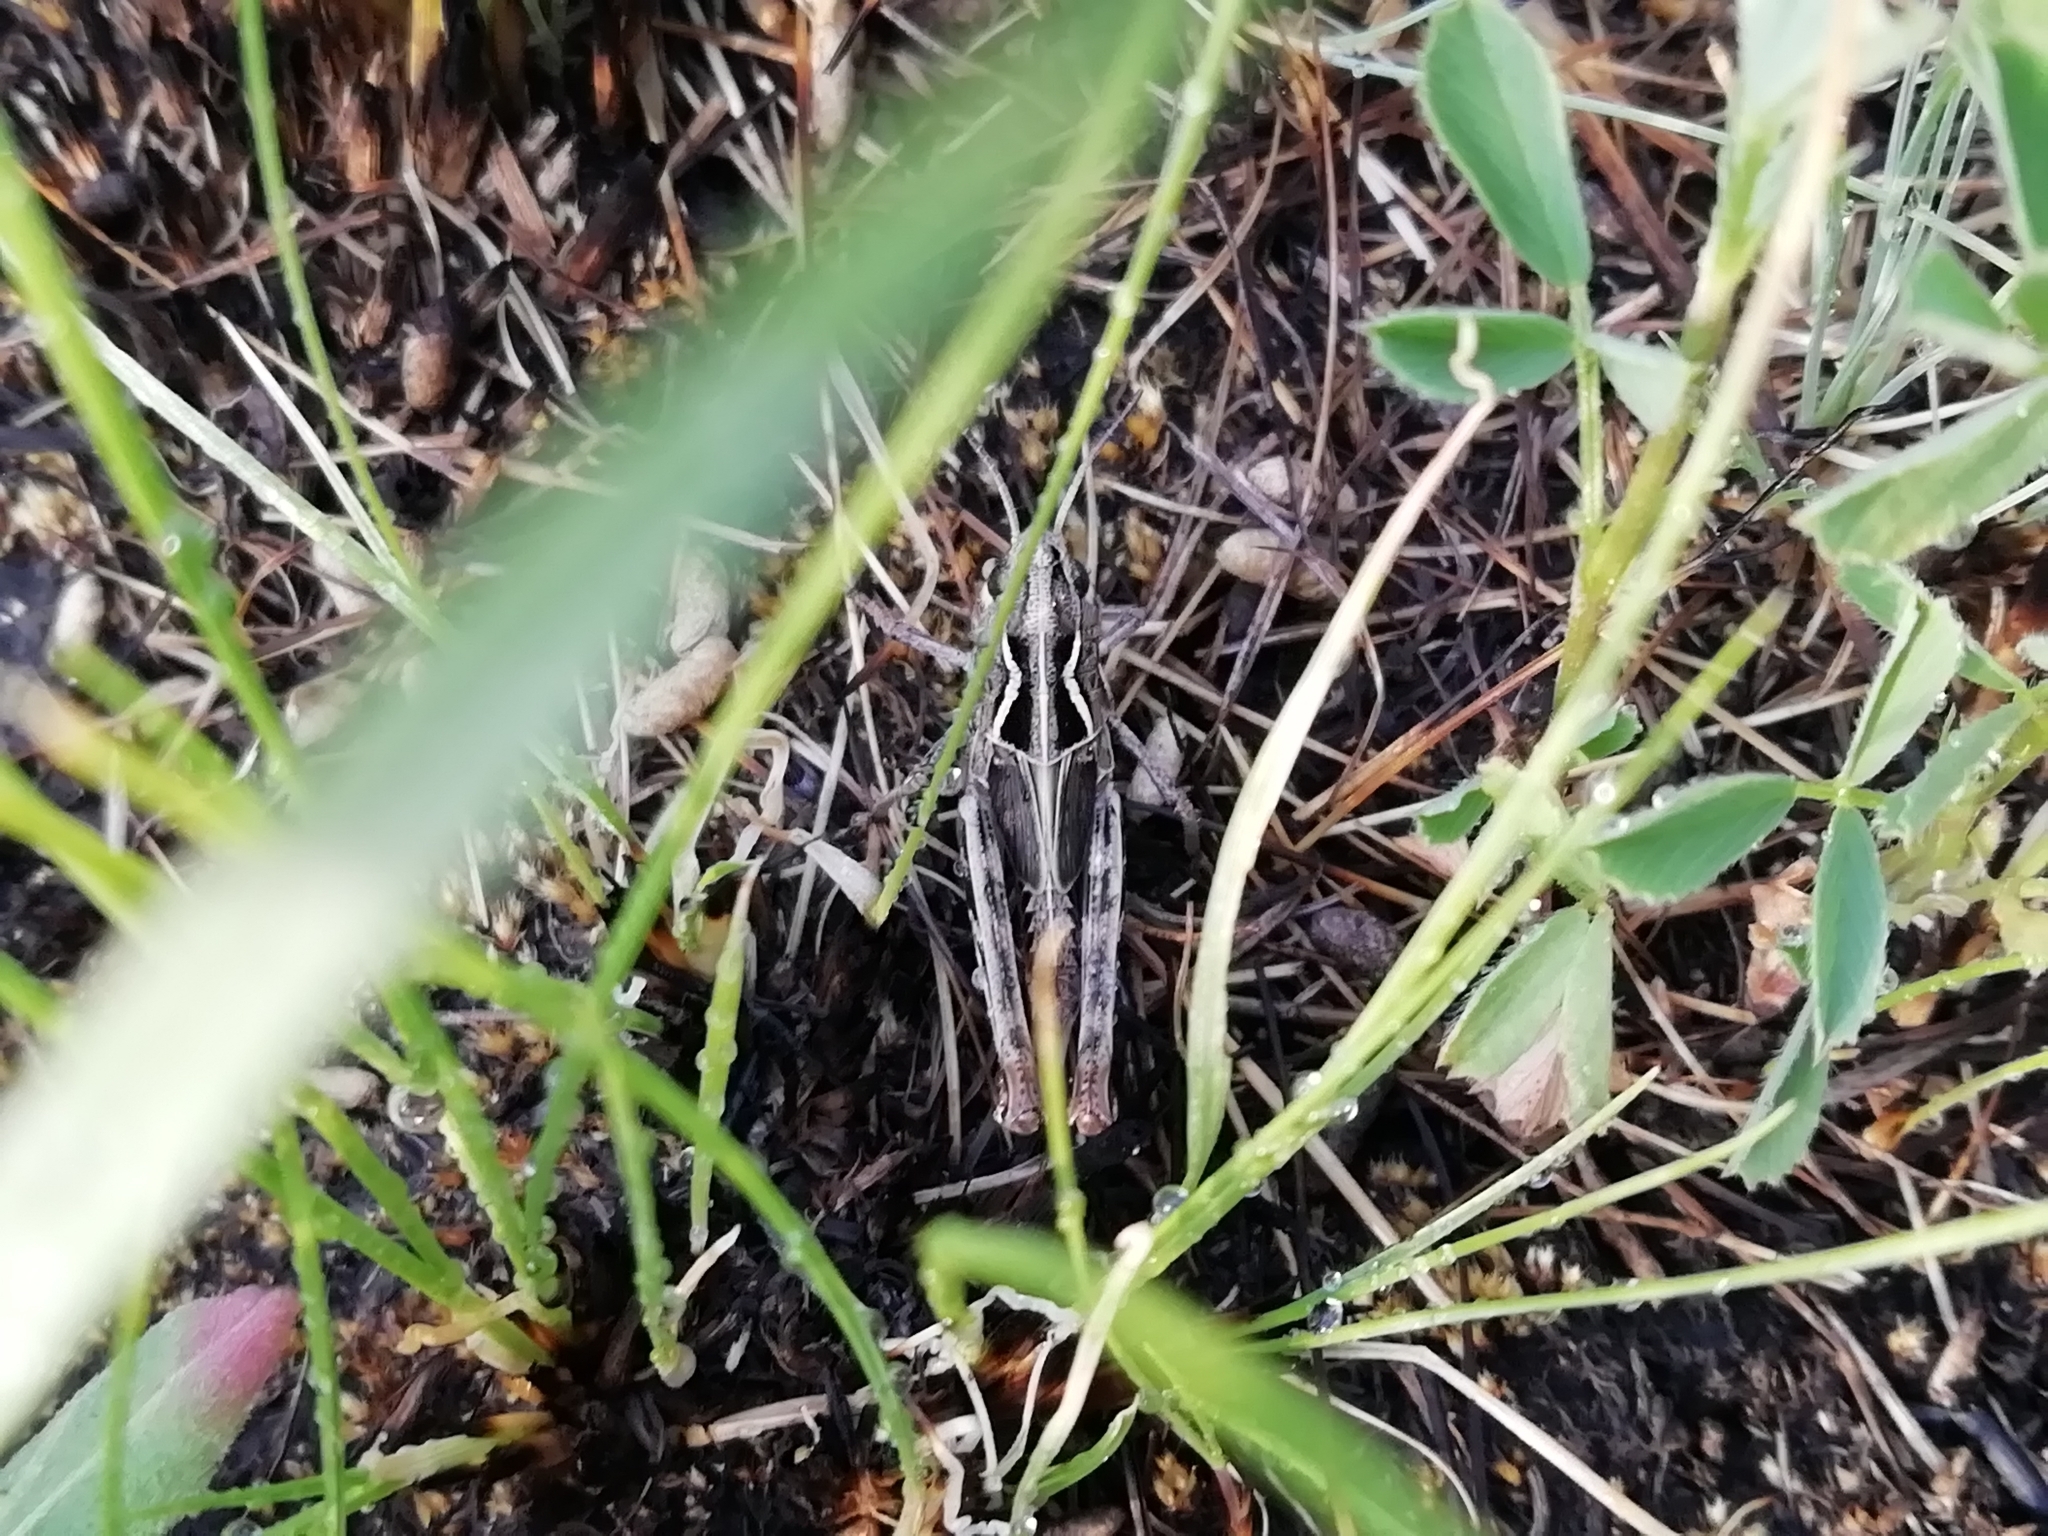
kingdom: Animalia
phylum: Arthropoda
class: Insecta
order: Orthoptera
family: Acrididae
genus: Arcyptera
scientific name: Arcyptera microptera
